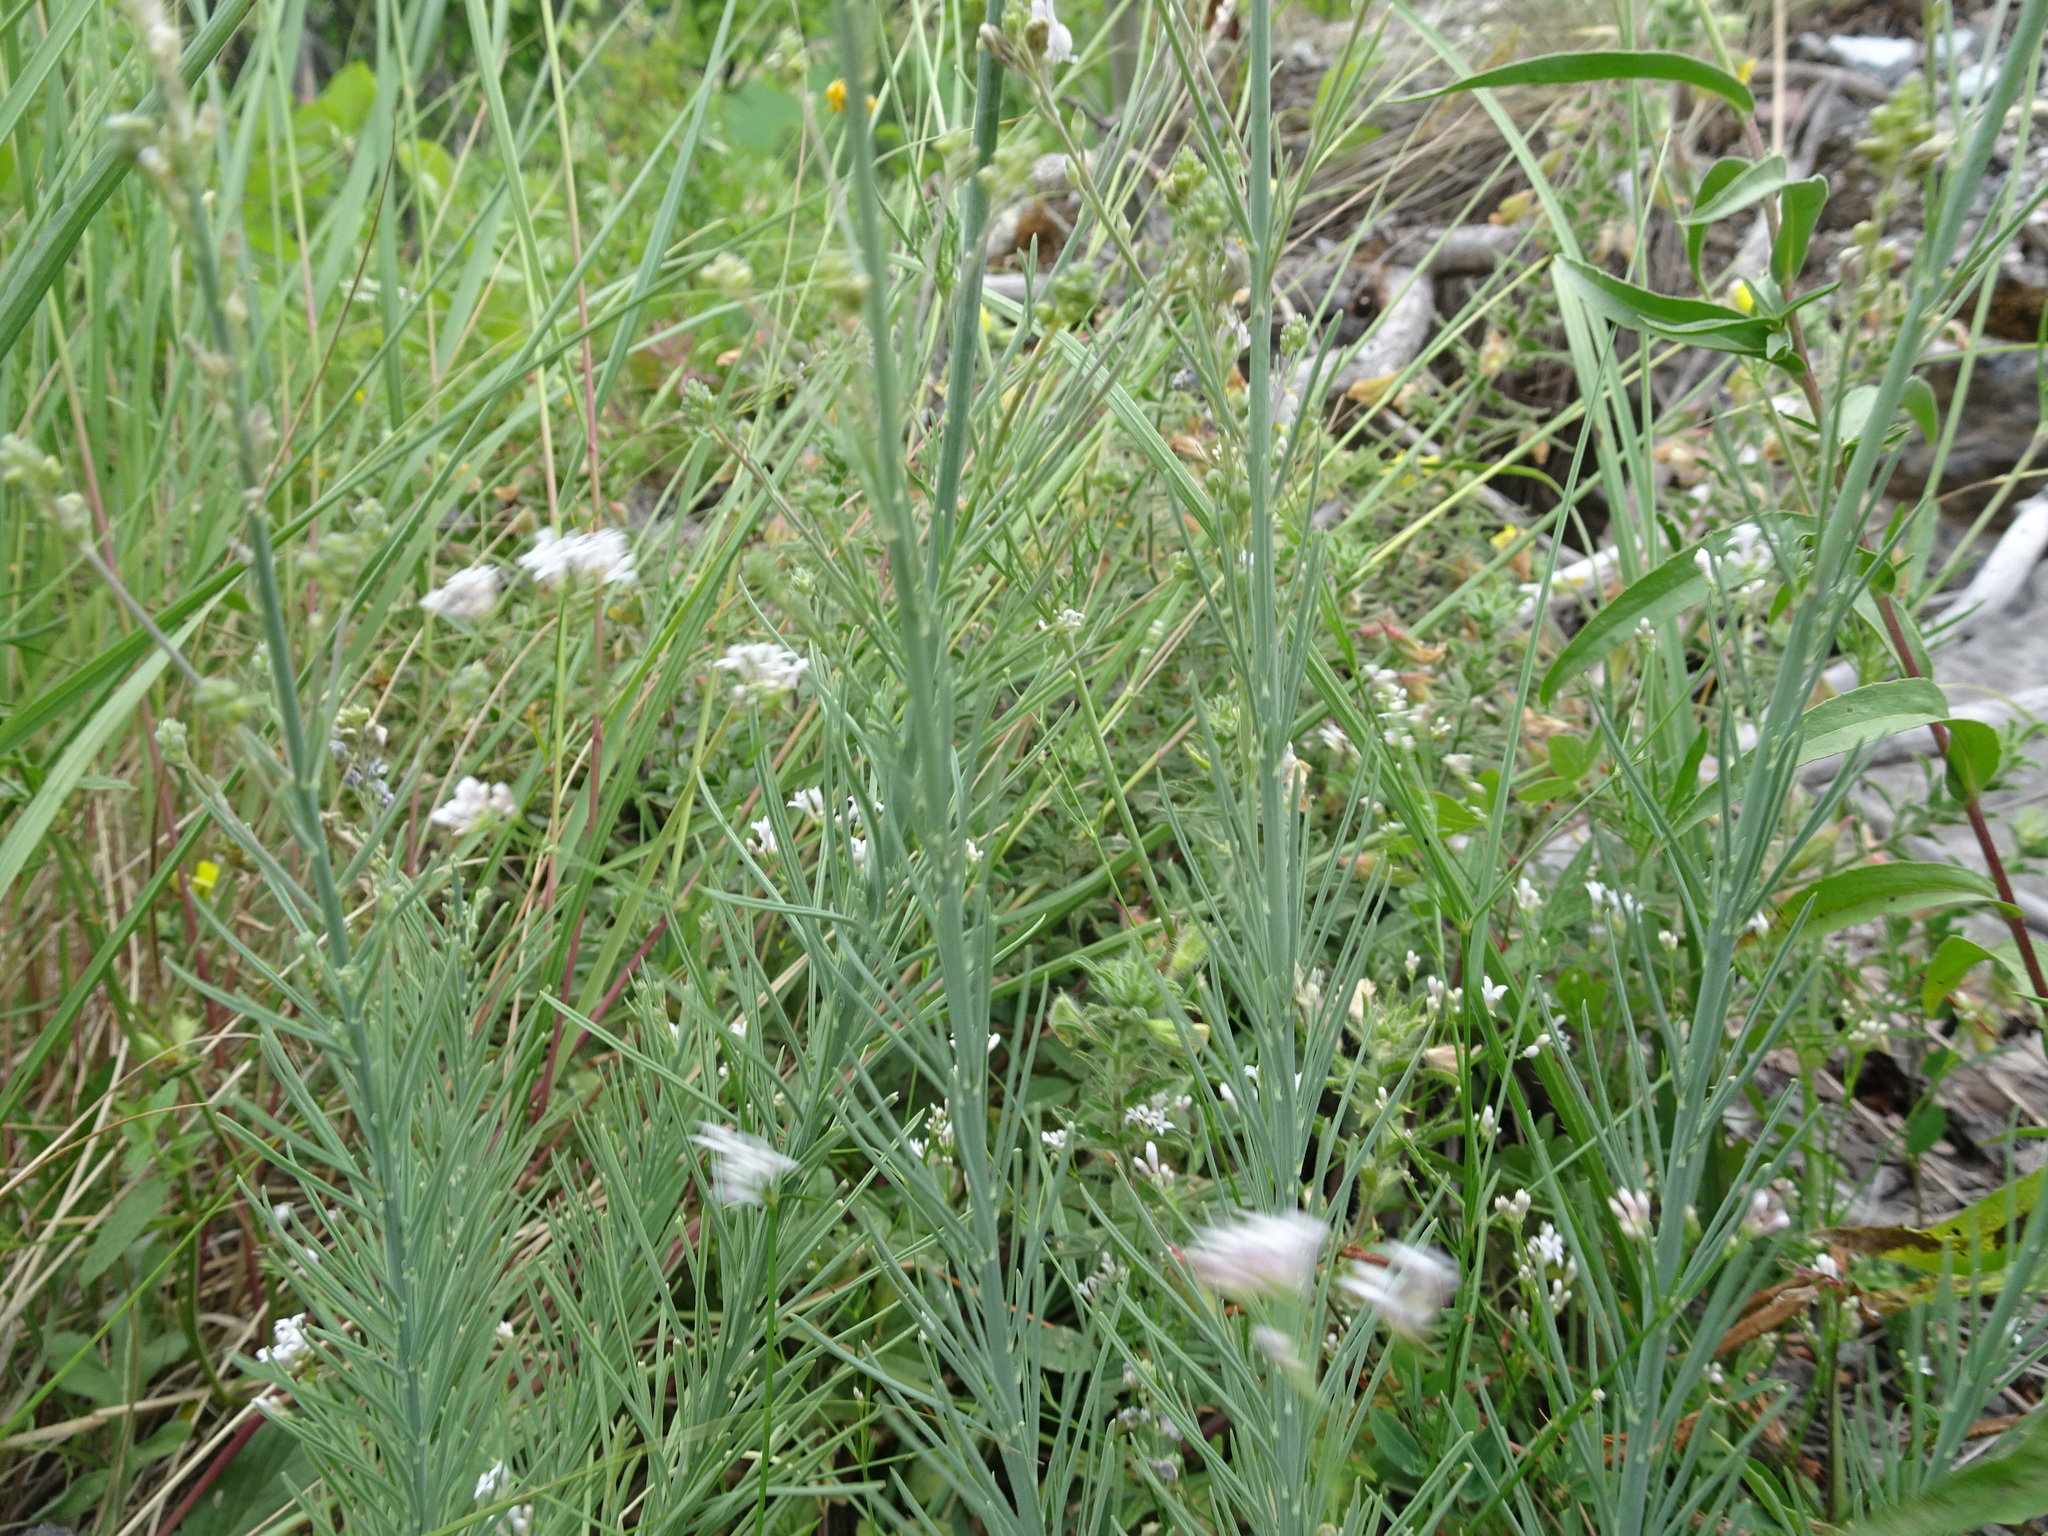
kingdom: Plantae
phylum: Tracheophyta
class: Magnoliopsida
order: Lamiales
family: Plantaginaceae
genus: Linaria
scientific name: Linaria repens
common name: Pale toadflax
